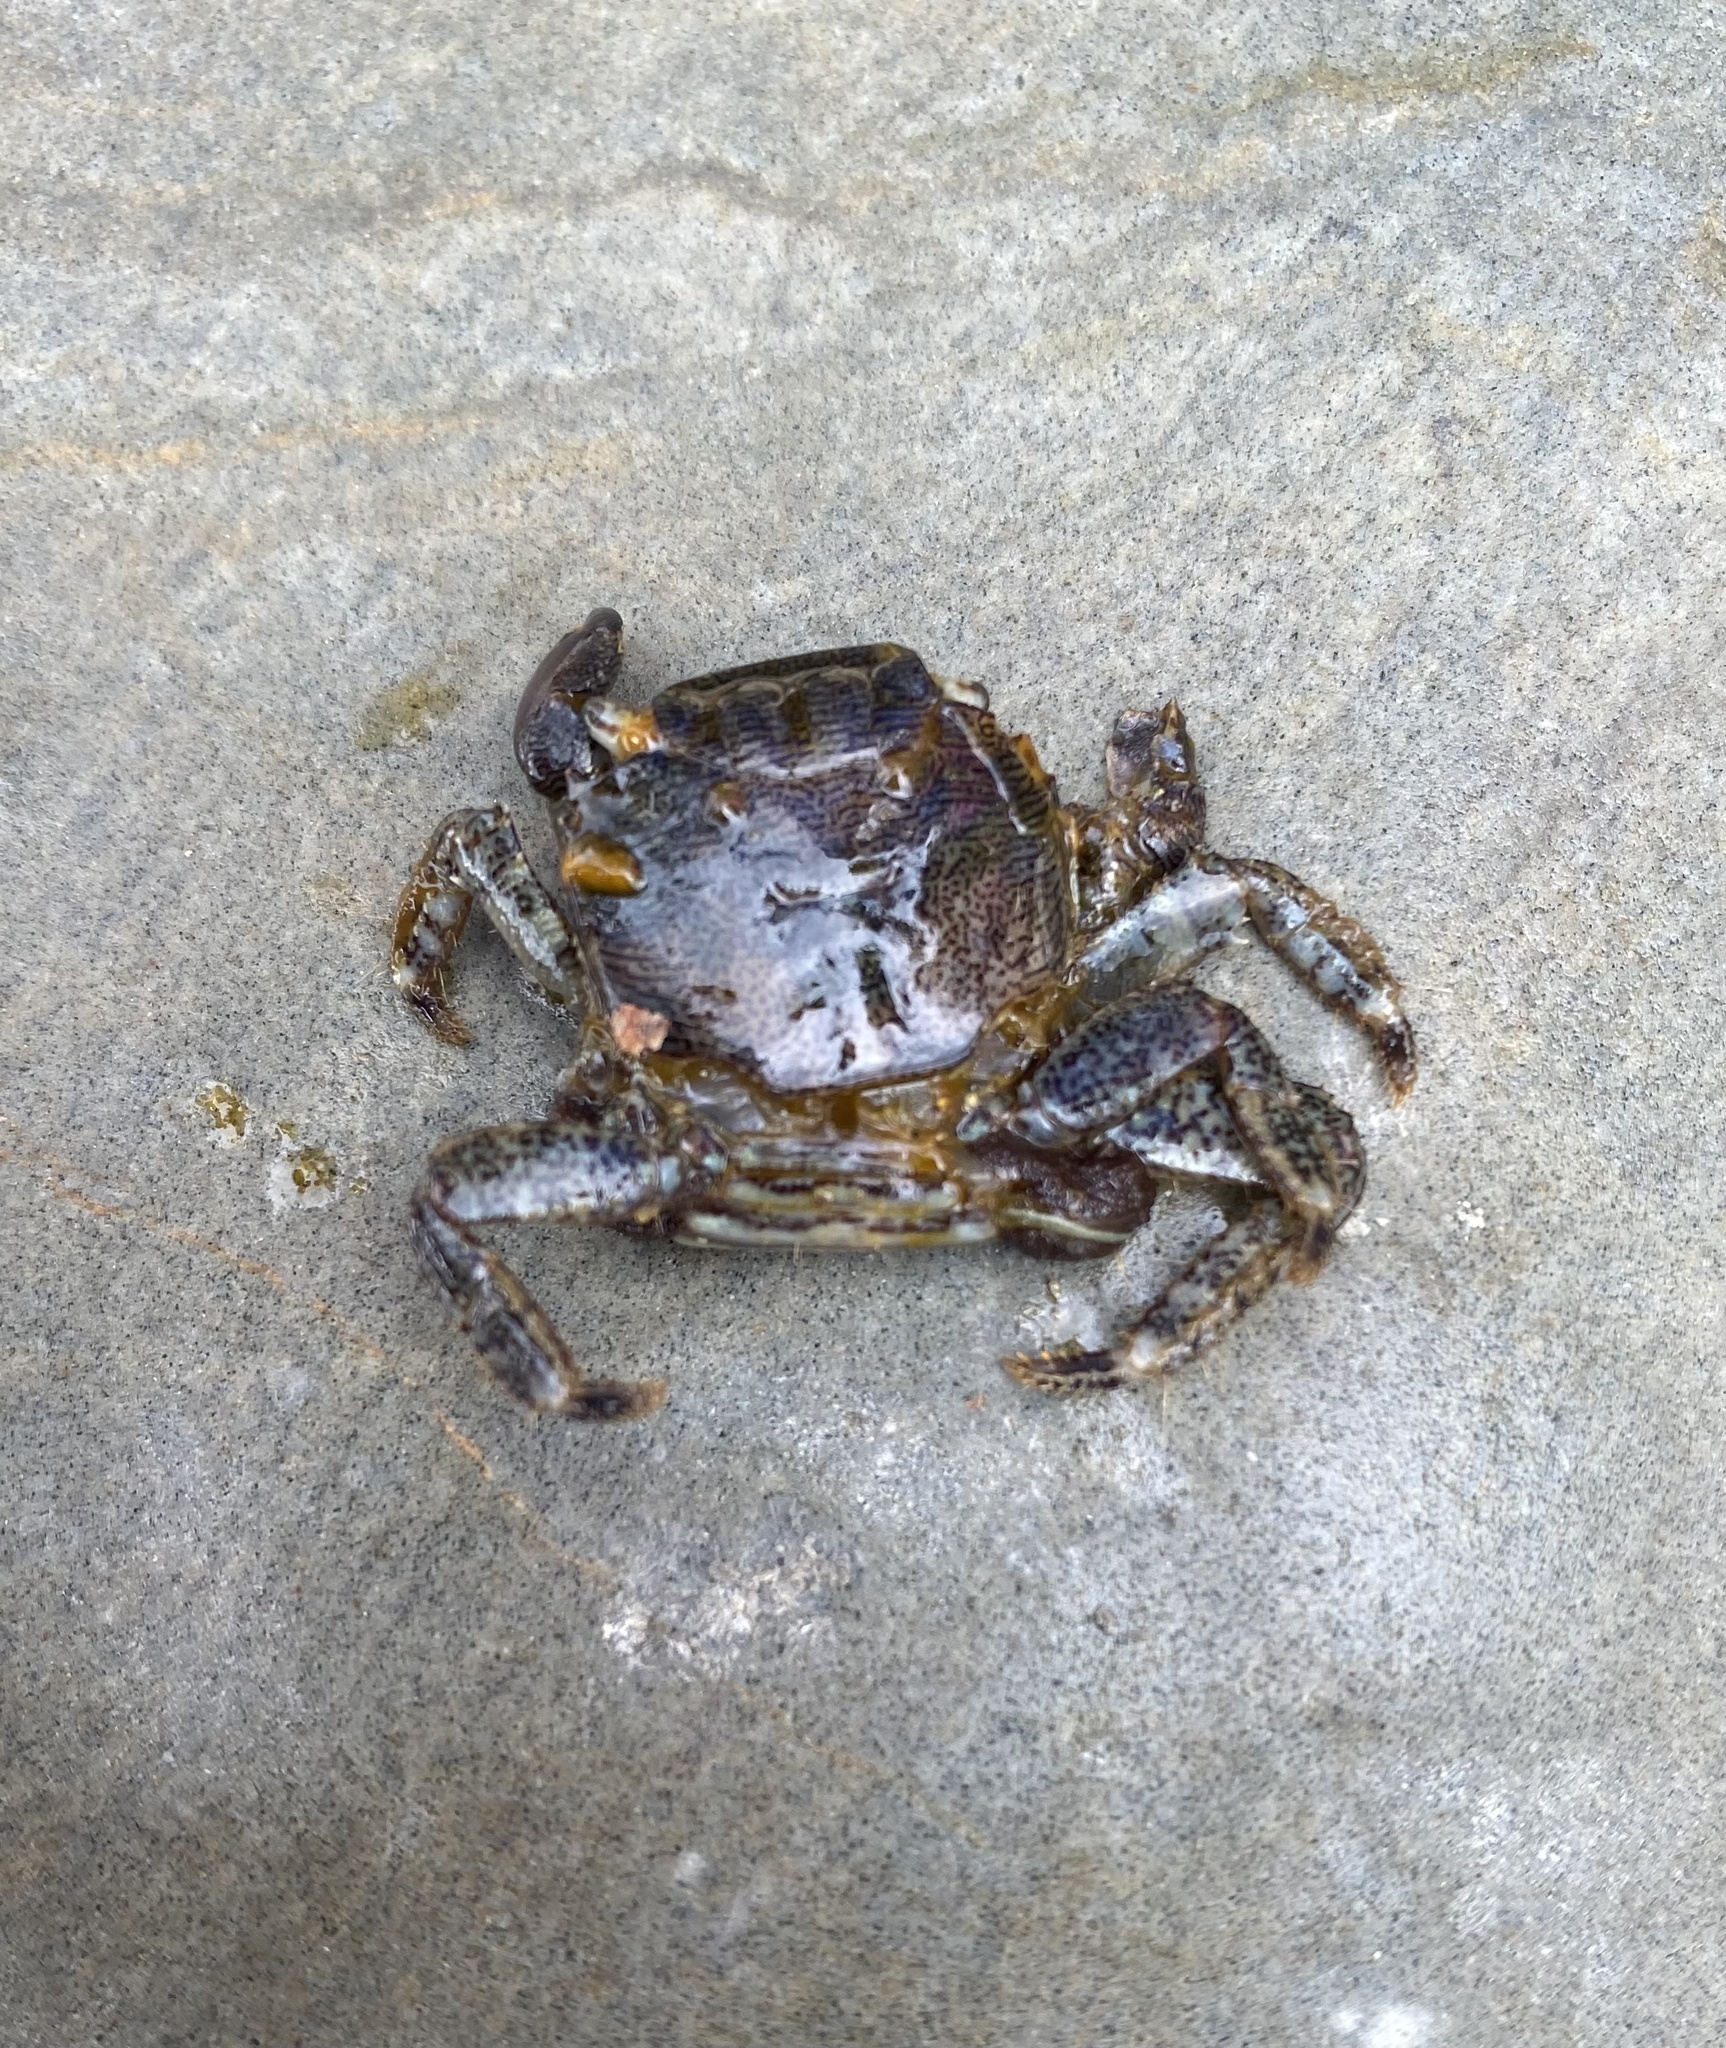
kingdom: Animalia
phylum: Arthropoda
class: Malacostraca
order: Decapoda
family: Grapsidae
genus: Pachygrapsus
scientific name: Pachygrapsus marmoratus
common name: Marbled rock crab
